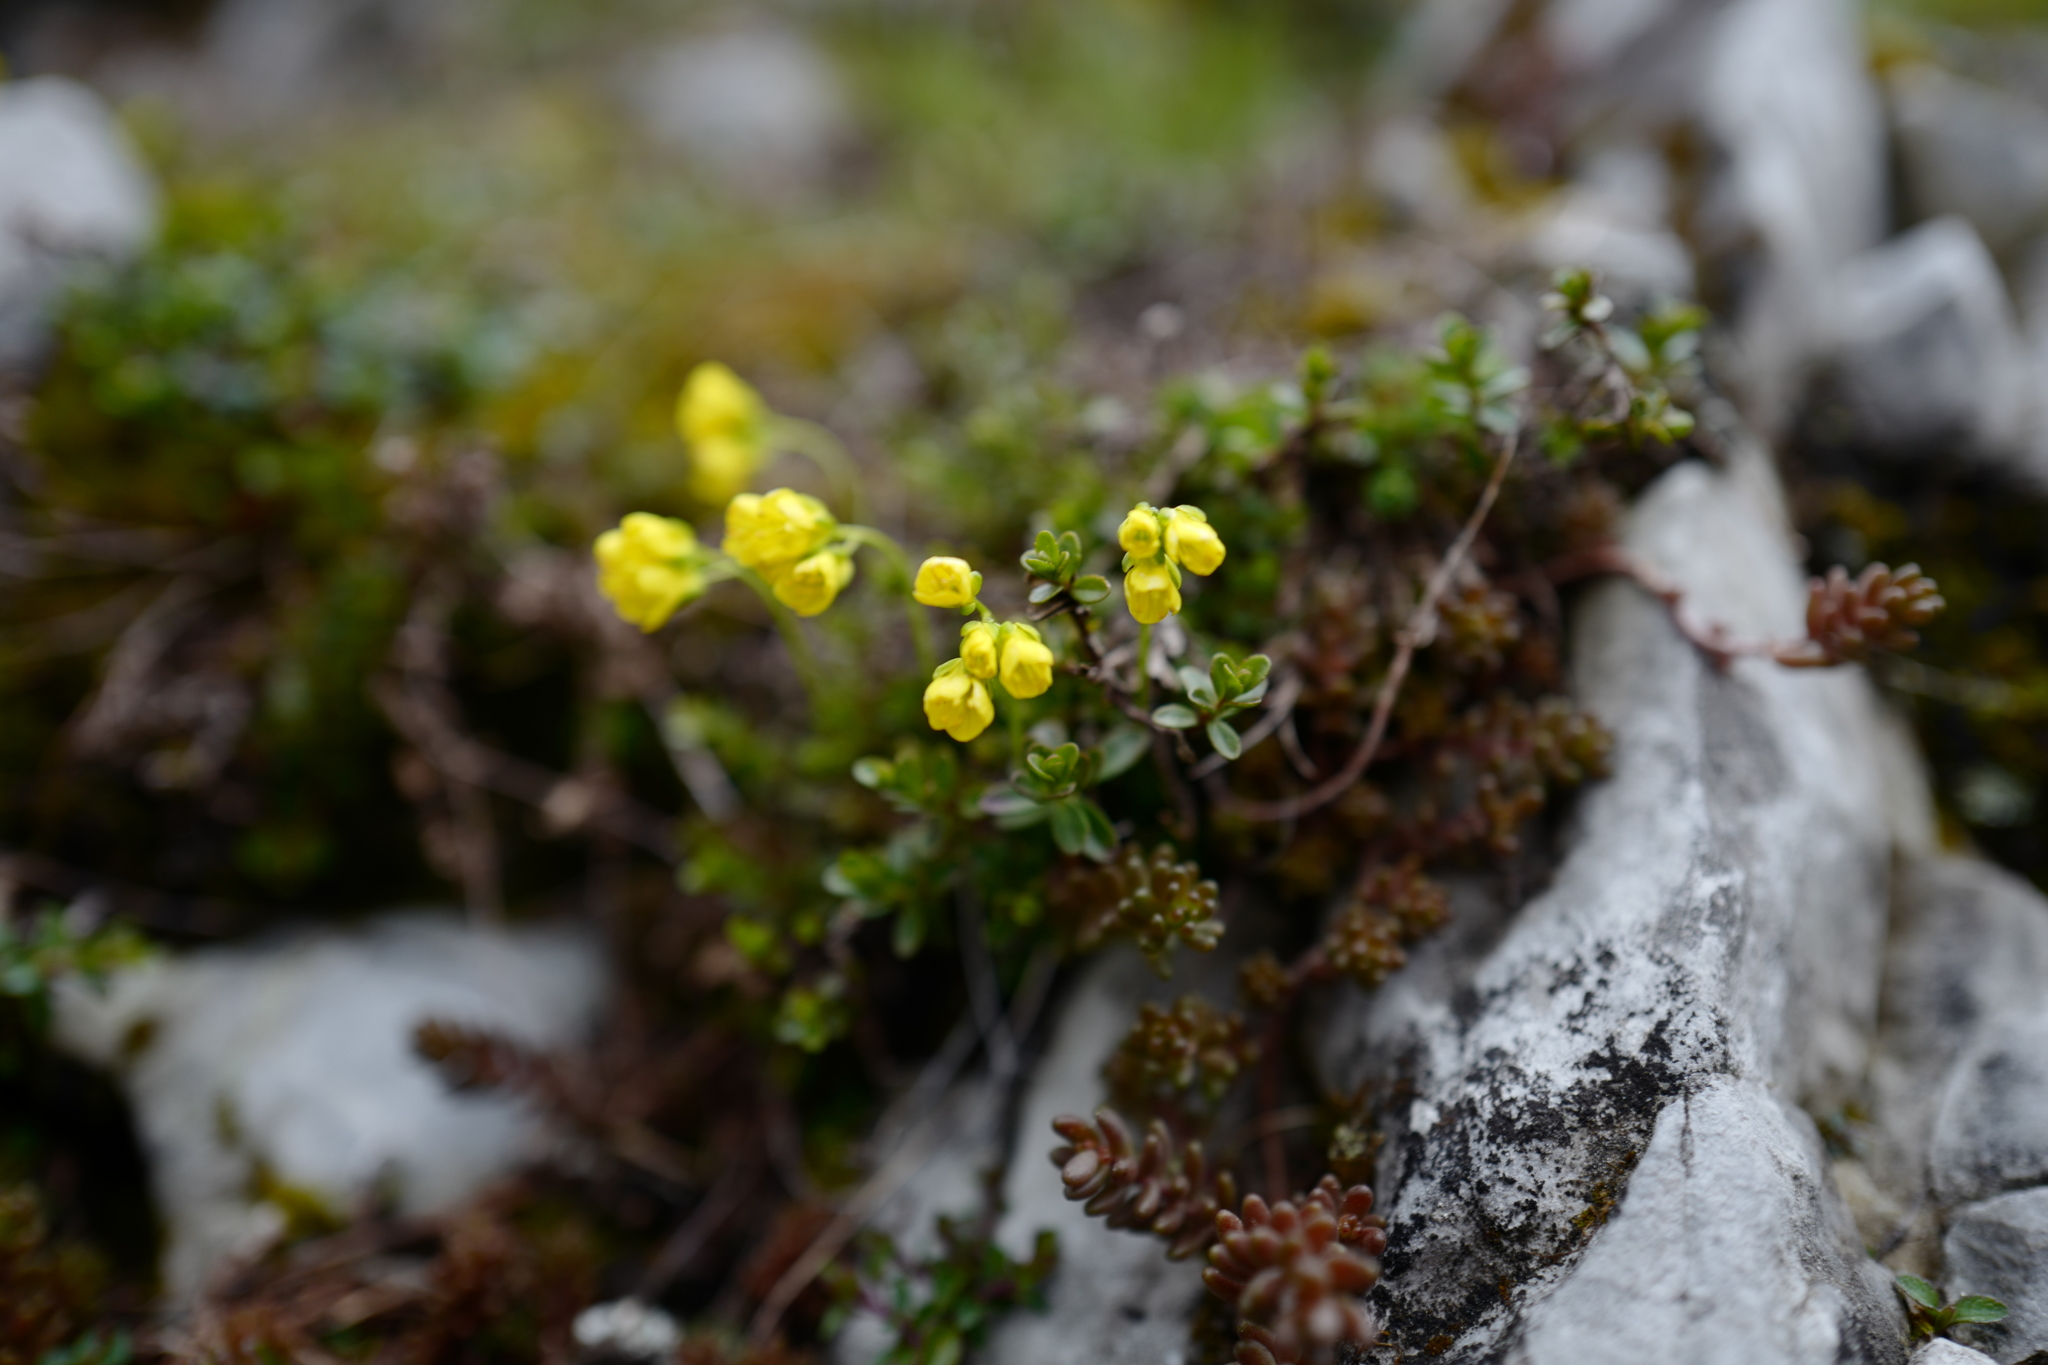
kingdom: Plantae
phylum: Tracheophyta
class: Magnoliopsida
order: Saxifragales
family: Crassulaceae
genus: Sedum
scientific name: Sedum sexangulare
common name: Tasteless stonecrop
